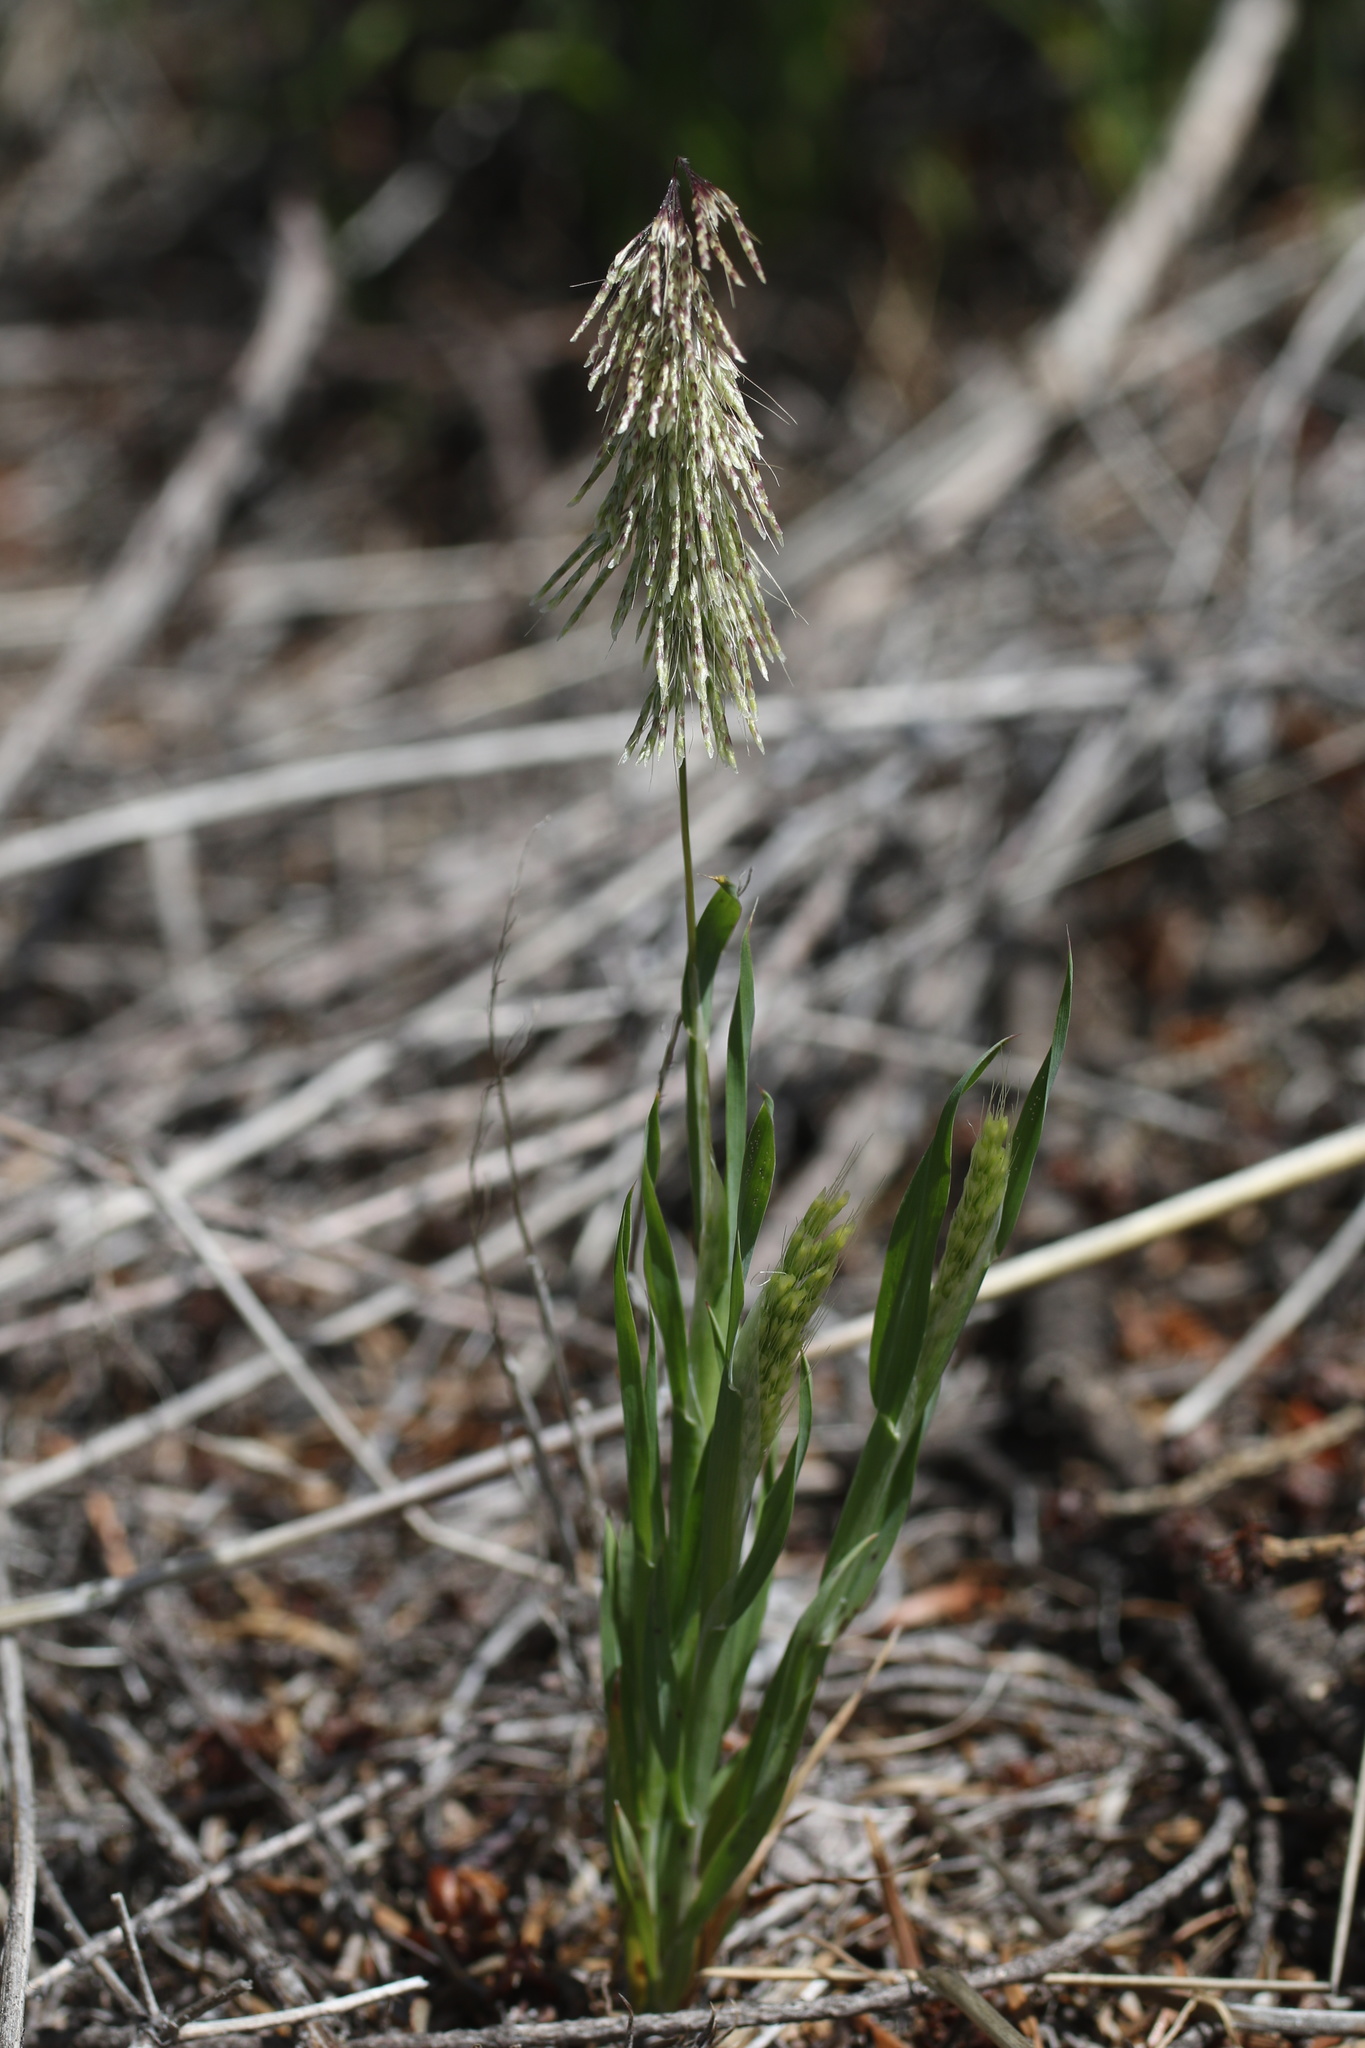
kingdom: Plantae
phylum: Tracheophyta
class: Liliopsida
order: Poales
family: Poaceae
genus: Lamarckia
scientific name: Lamarckia aurea
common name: Golden dog's-tail
